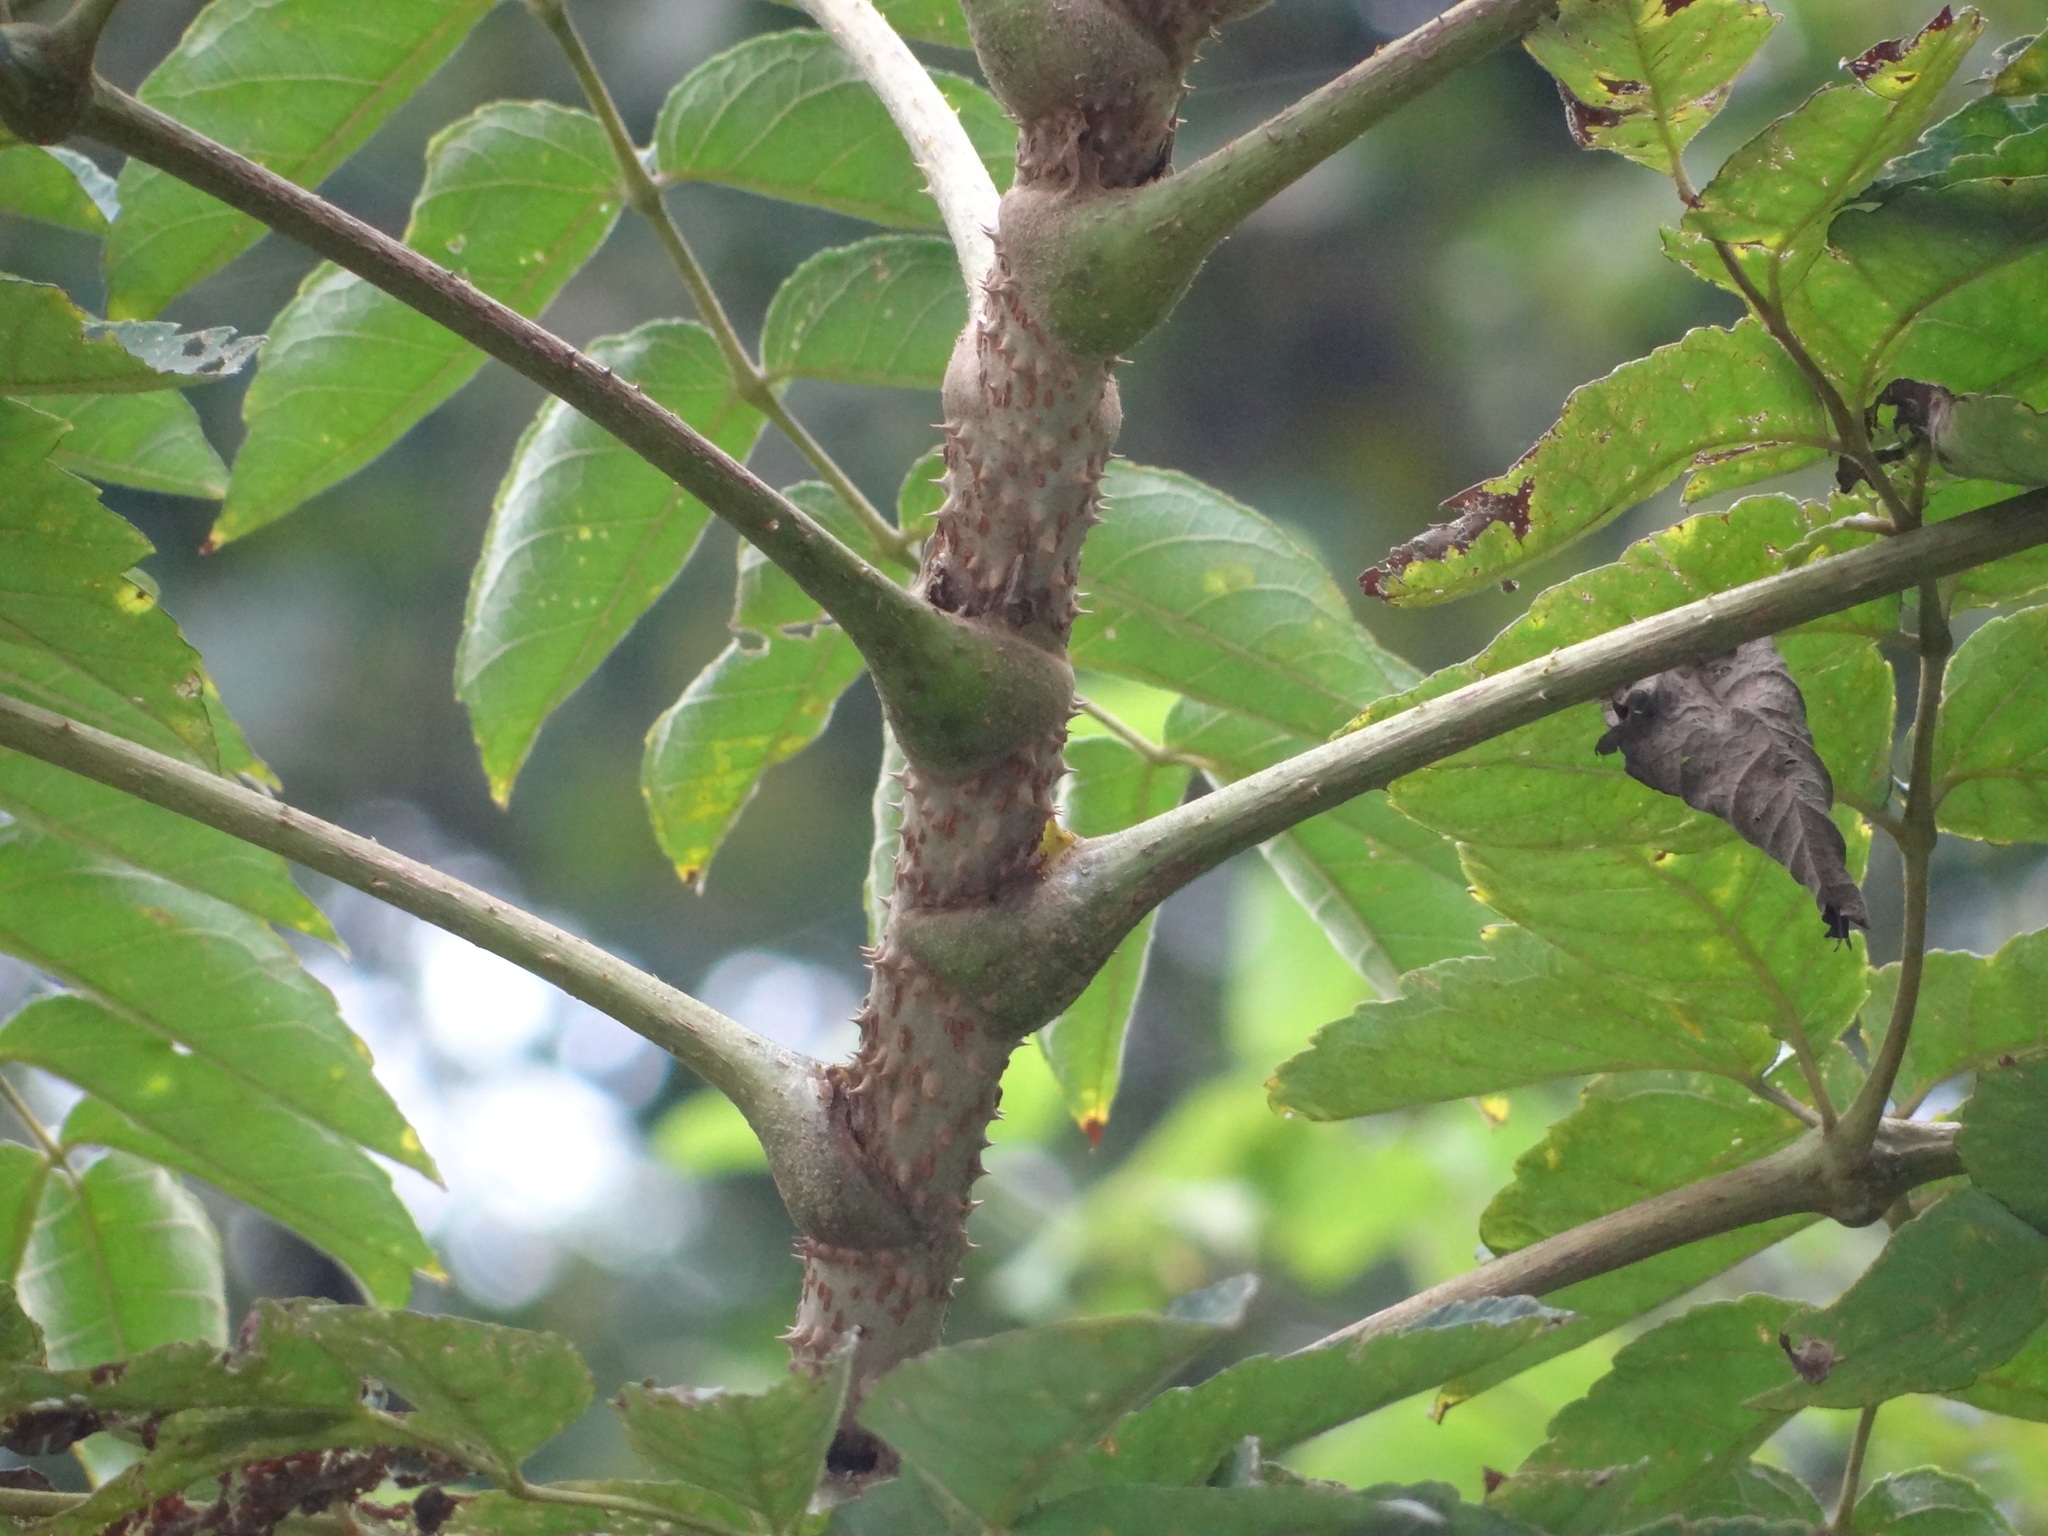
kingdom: Plantae
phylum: Tracheophyta
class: Magnoliopsida
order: Apiales
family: Araliaceae
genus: Aralia
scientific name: Aralia decaisneana
